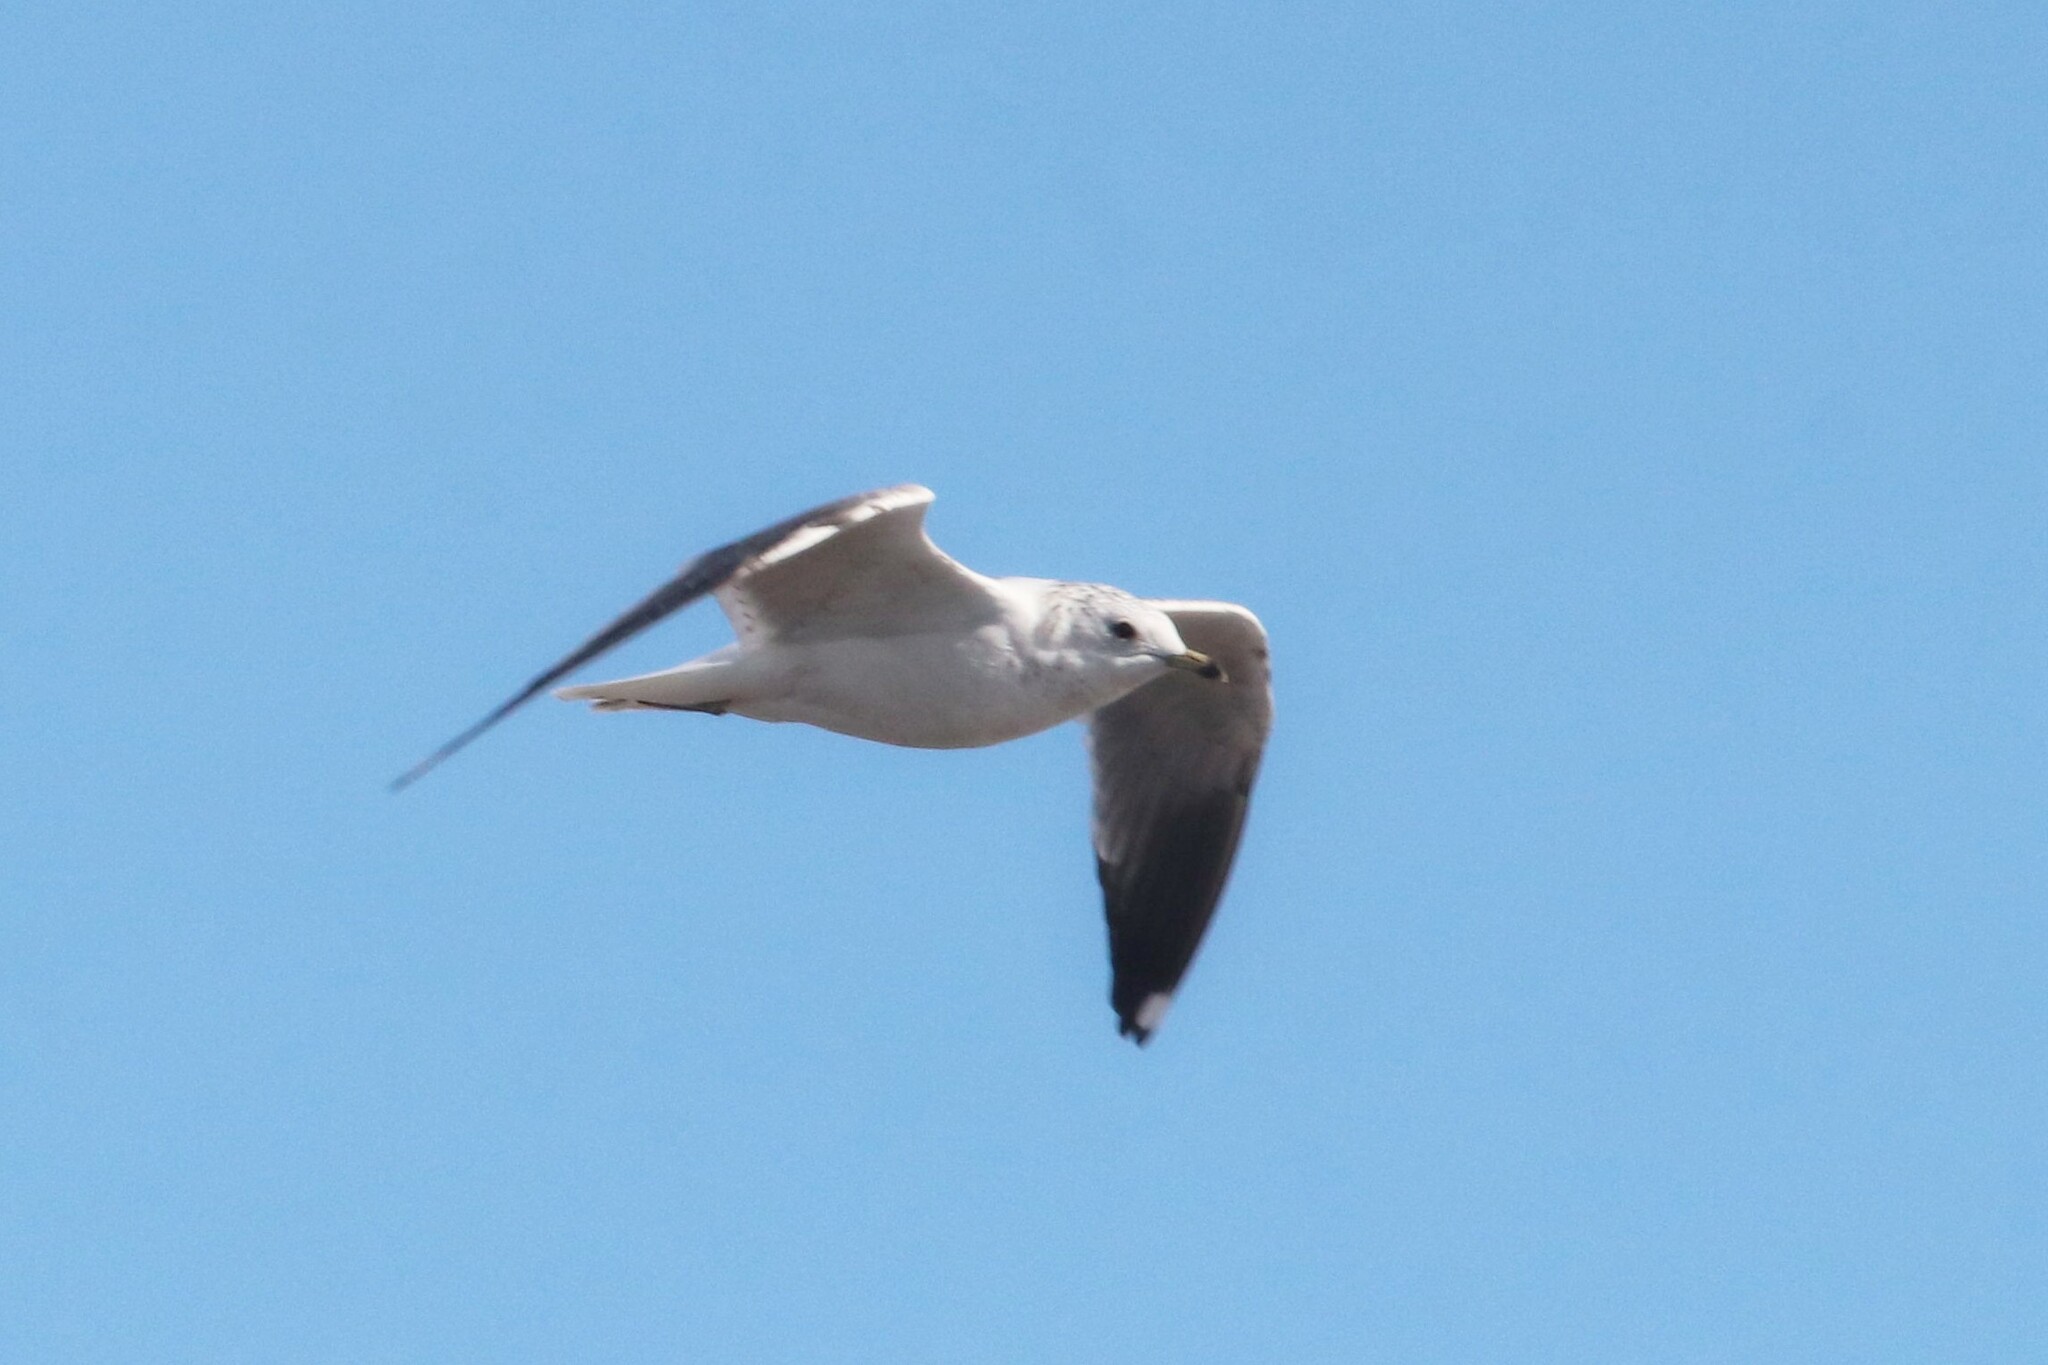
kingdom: Animalia
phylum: Chordata
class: Aves
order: Charadriiformes
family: Laridae
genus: Larus
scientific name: Larus canus
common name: Mew gull
